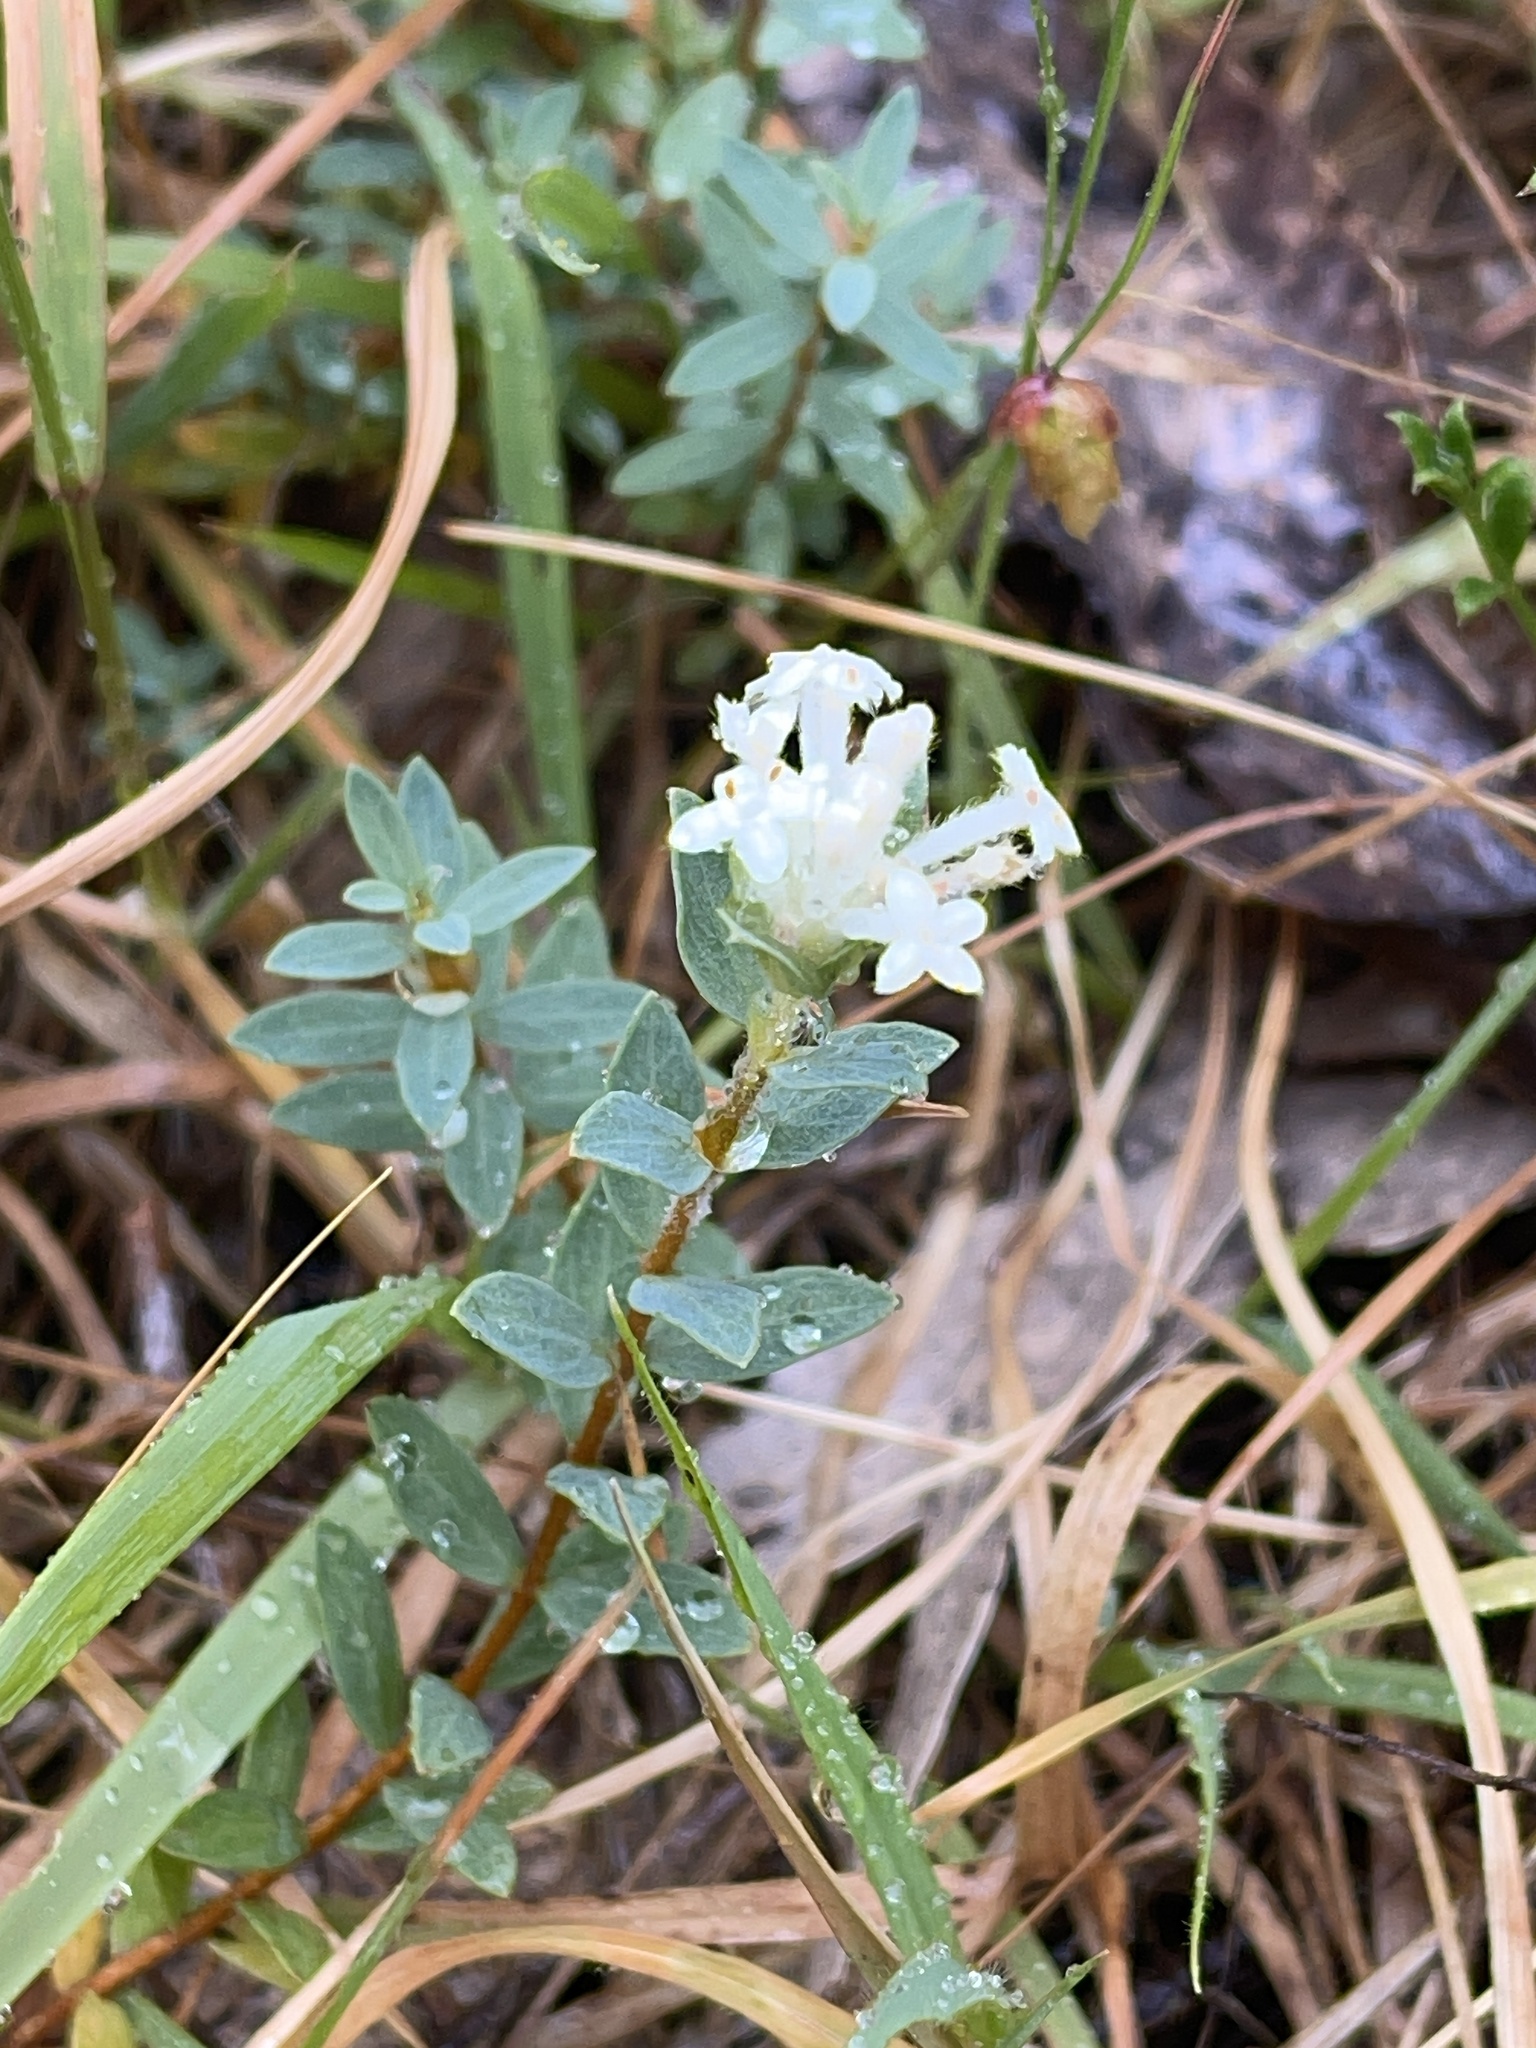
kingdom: Plantae
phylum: Tracheophyta
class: Magnoliopsida
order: Malvales
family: Thymelaeaceae
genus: Pimelea
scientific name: Pimelea humilis
